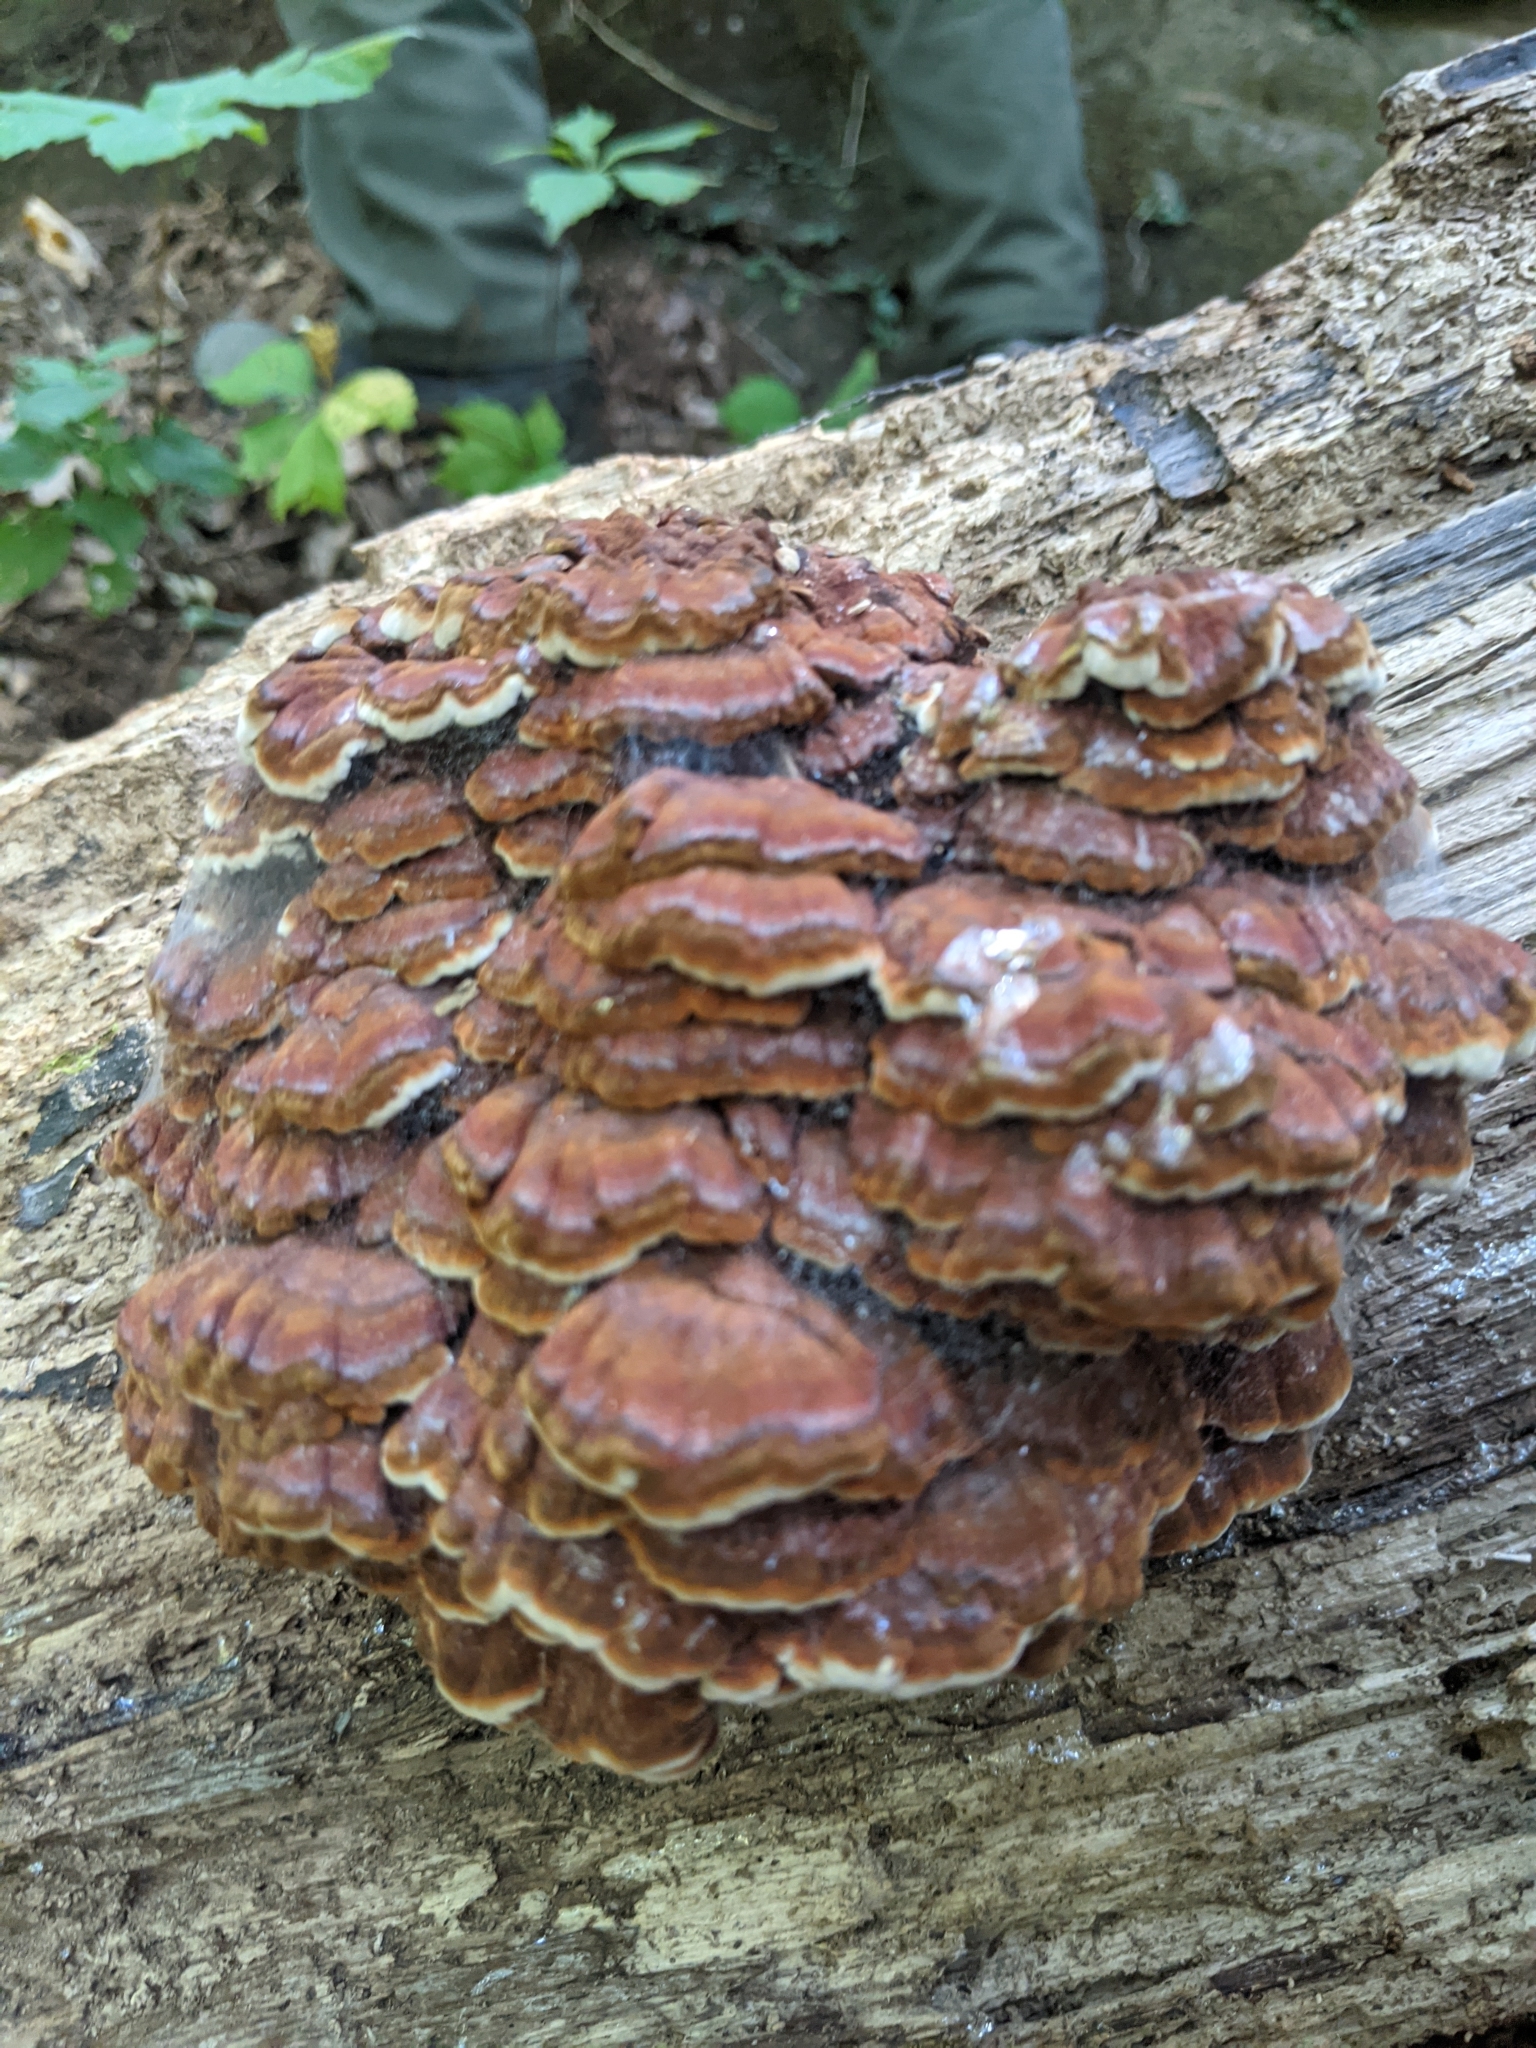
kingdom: Fungi
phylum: Basidiomycota
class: Agaricomycetes
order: Polyporales
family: Polyporaceae
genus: Globifomes
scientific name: Globifomes graveolens
